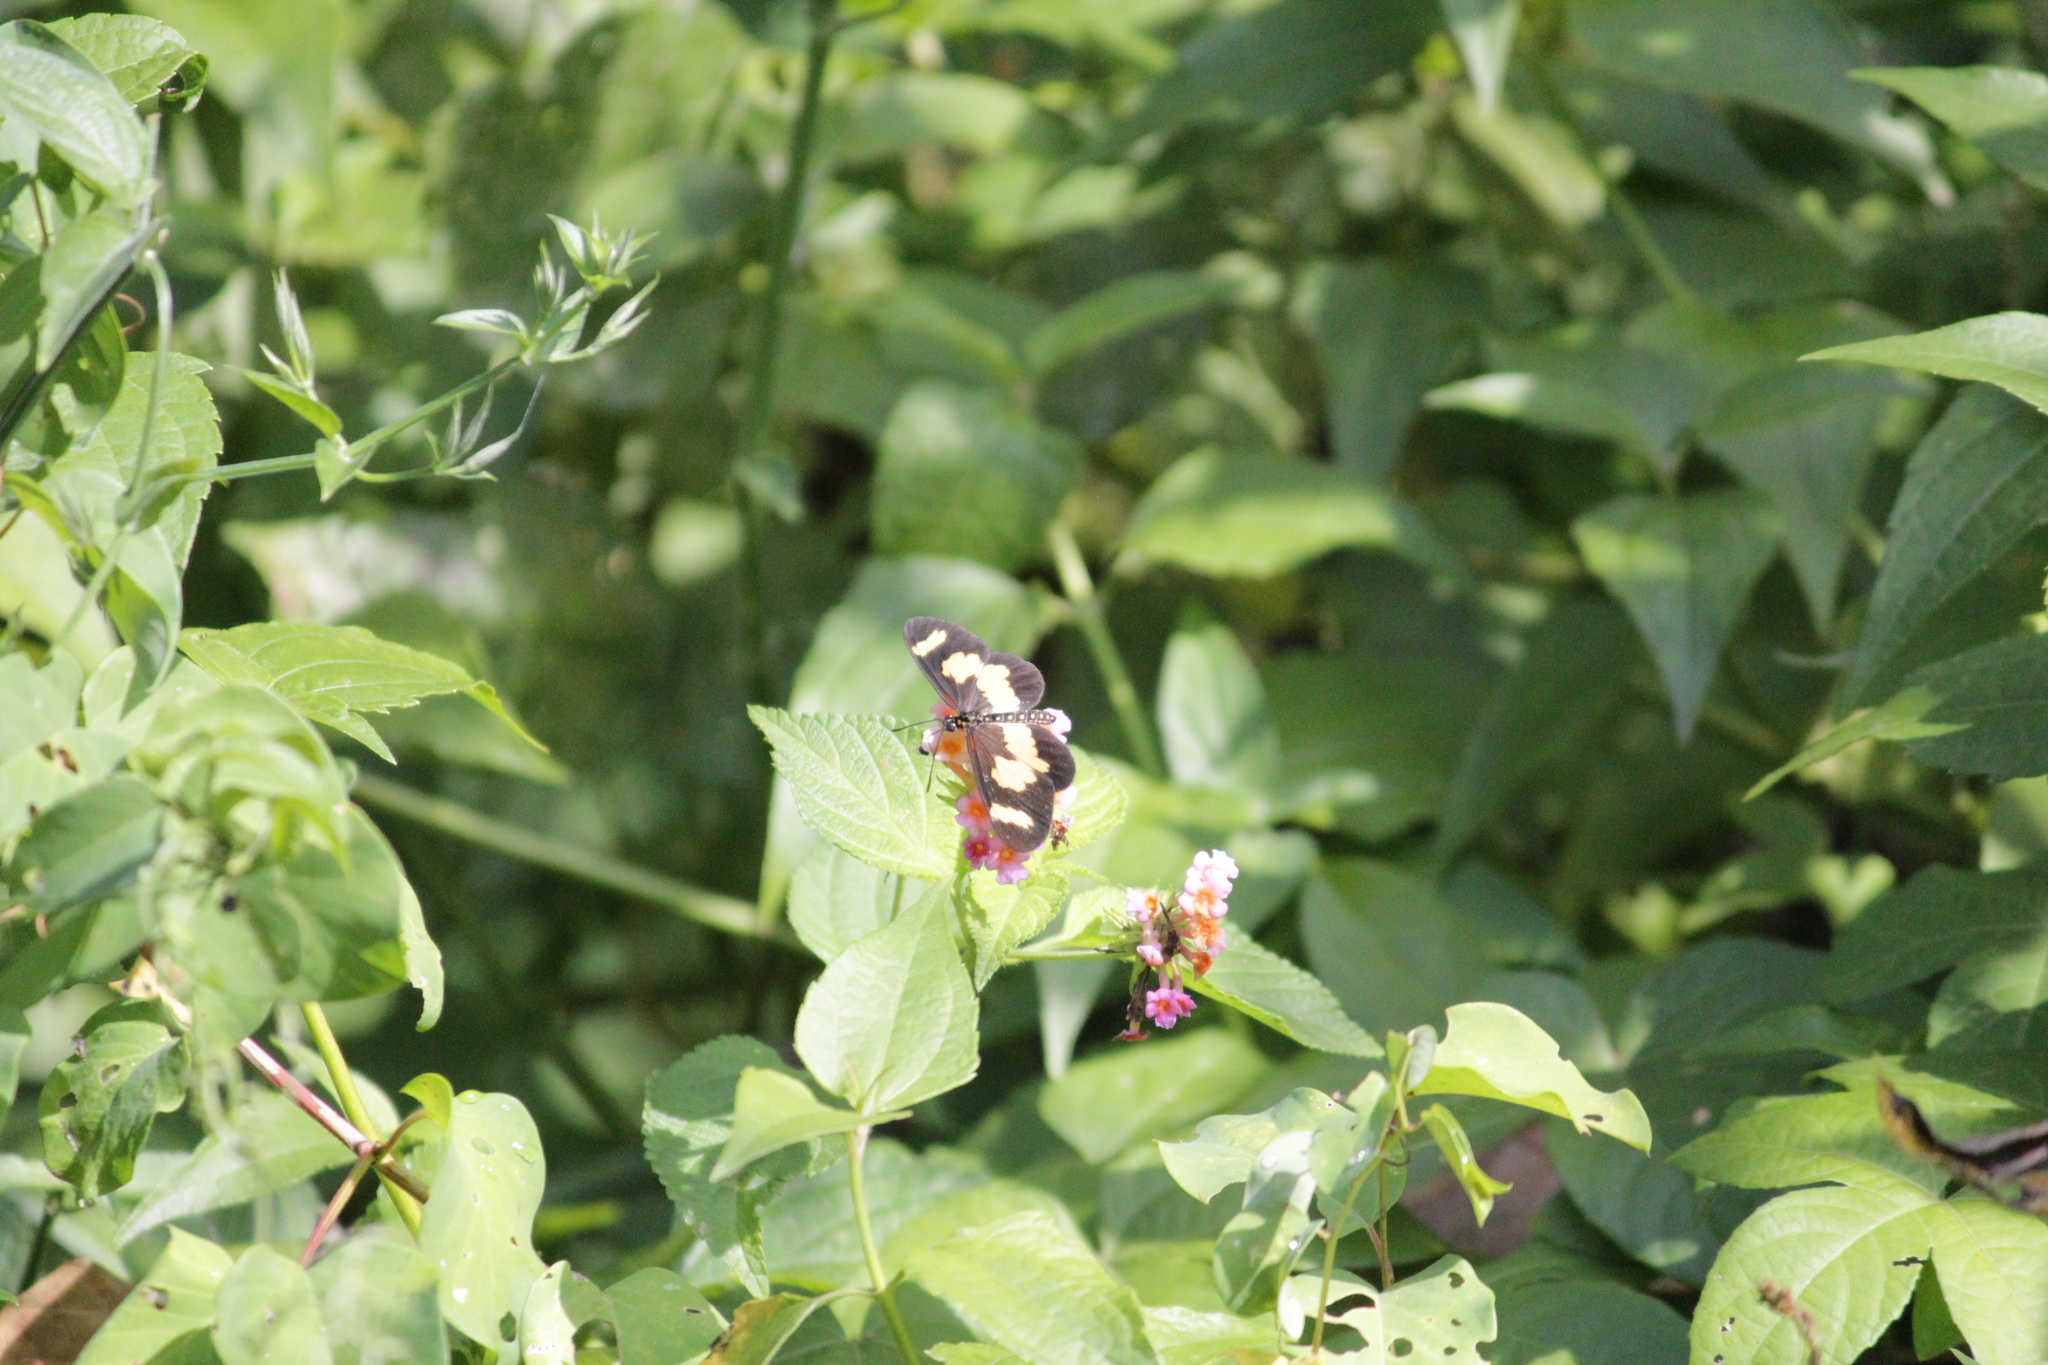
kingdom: Animalia
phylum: Arthropoda
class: Insecta
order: Lepidoptera
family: Nymphalidae
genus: Acraea
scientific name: Acraea cabira
